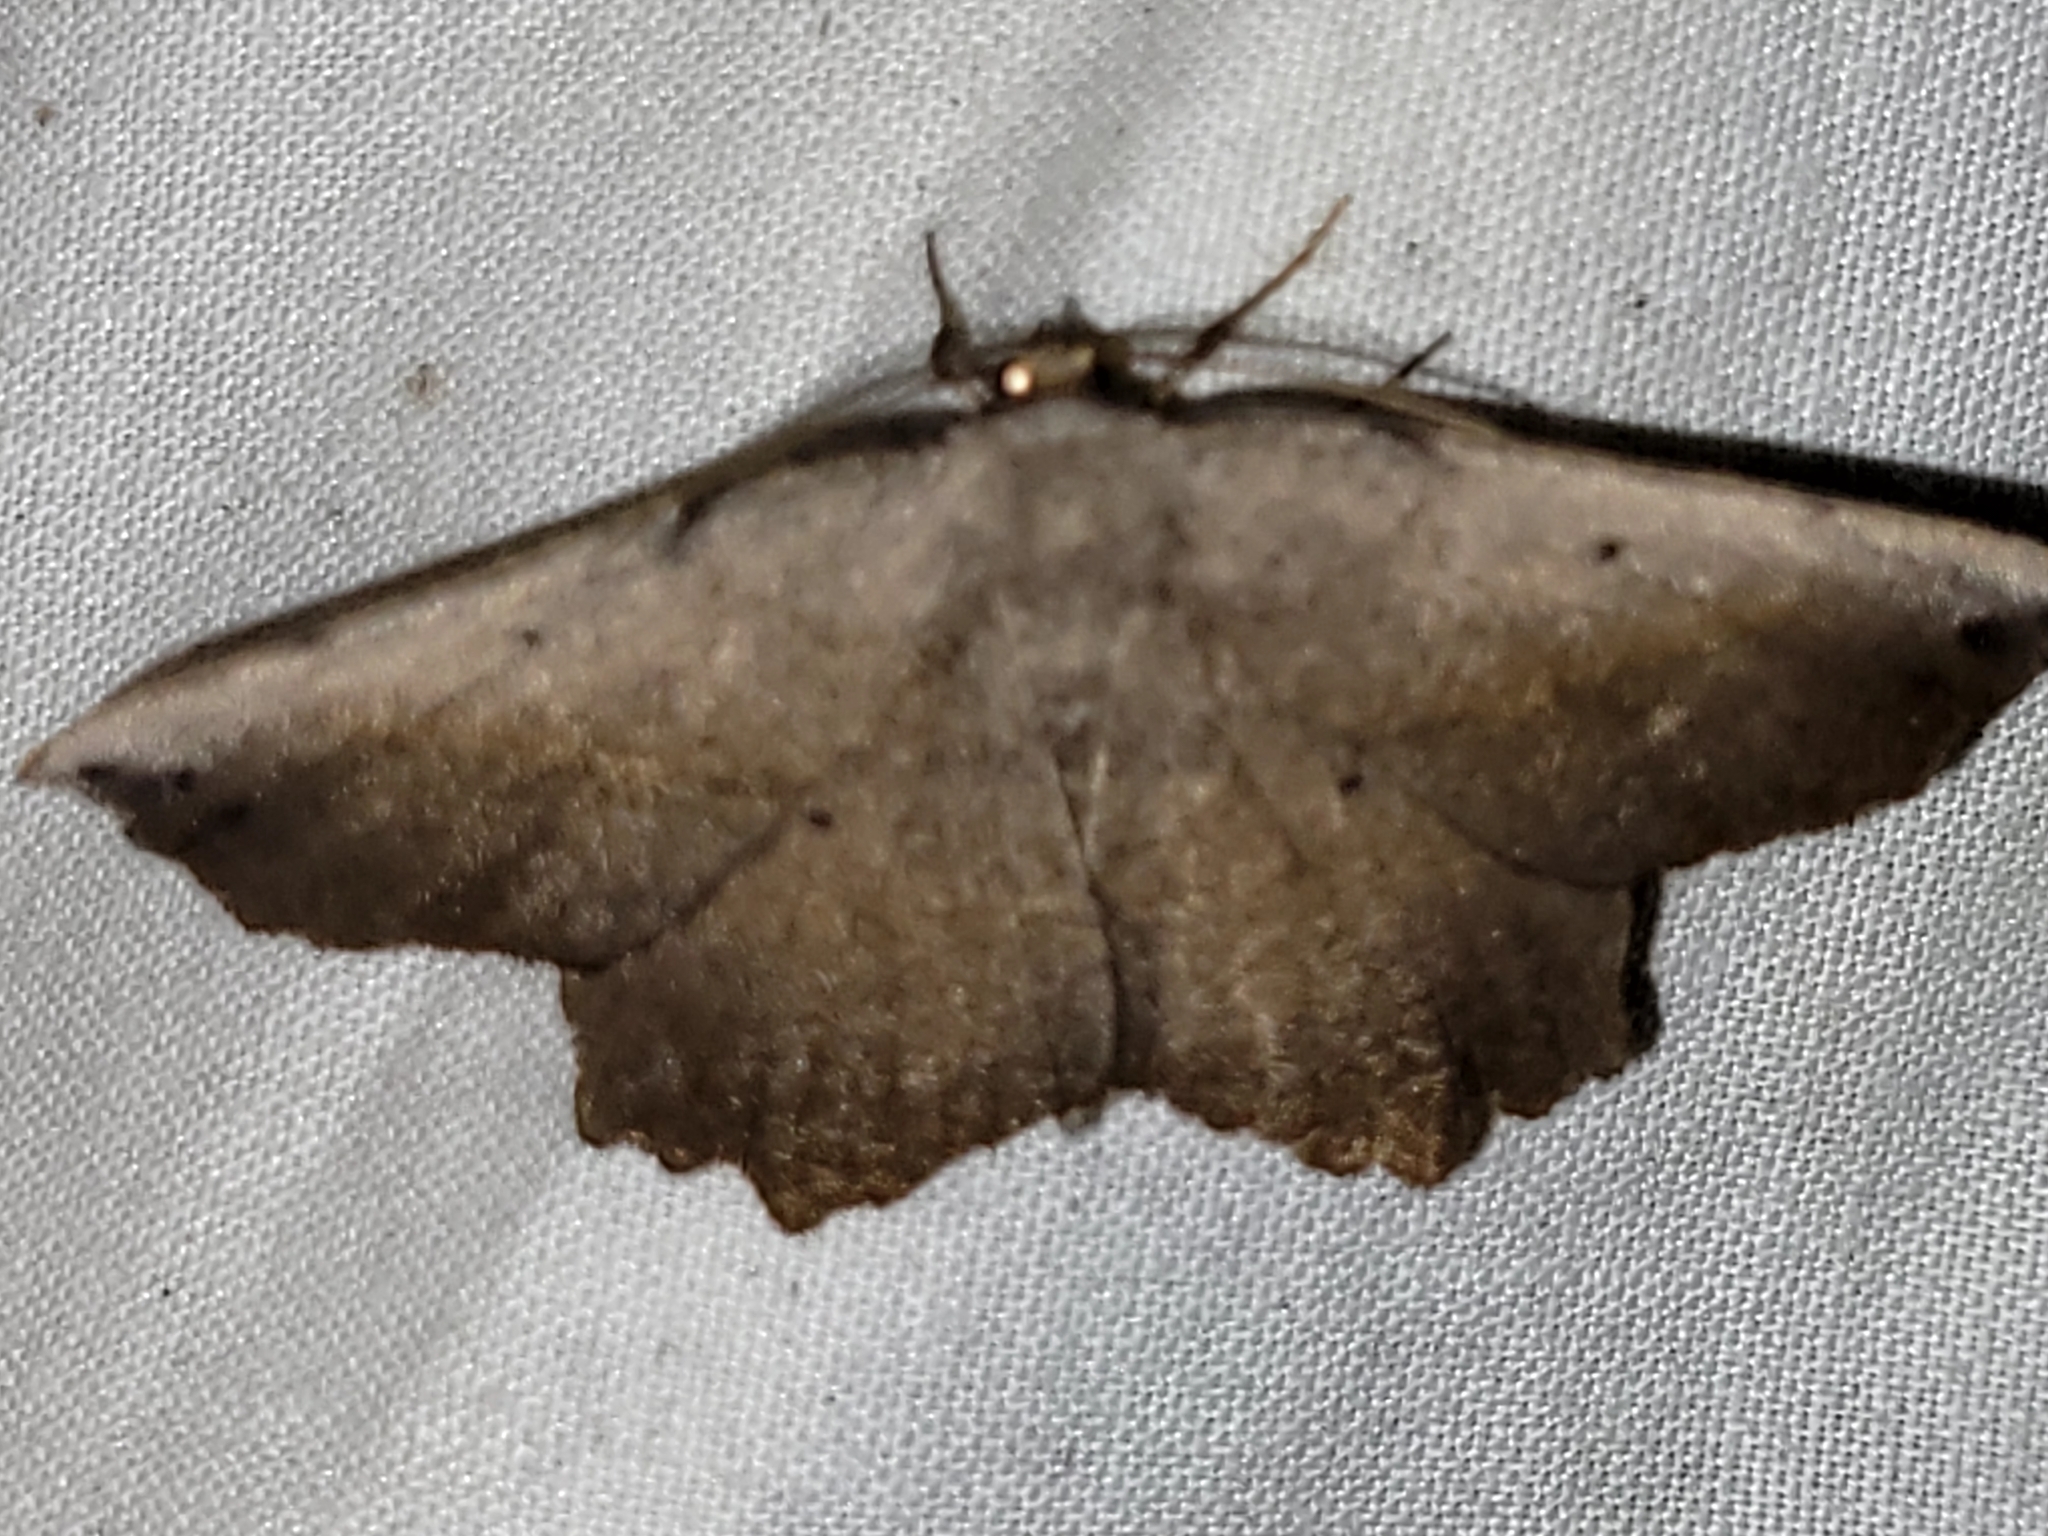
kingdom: Animalia
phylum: Arthropoda
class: Insecta
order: Lepidoptera
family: Geometridae
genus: Euchlaena
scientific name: Euchlaena muzaria
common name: Muzaria euchlaena
